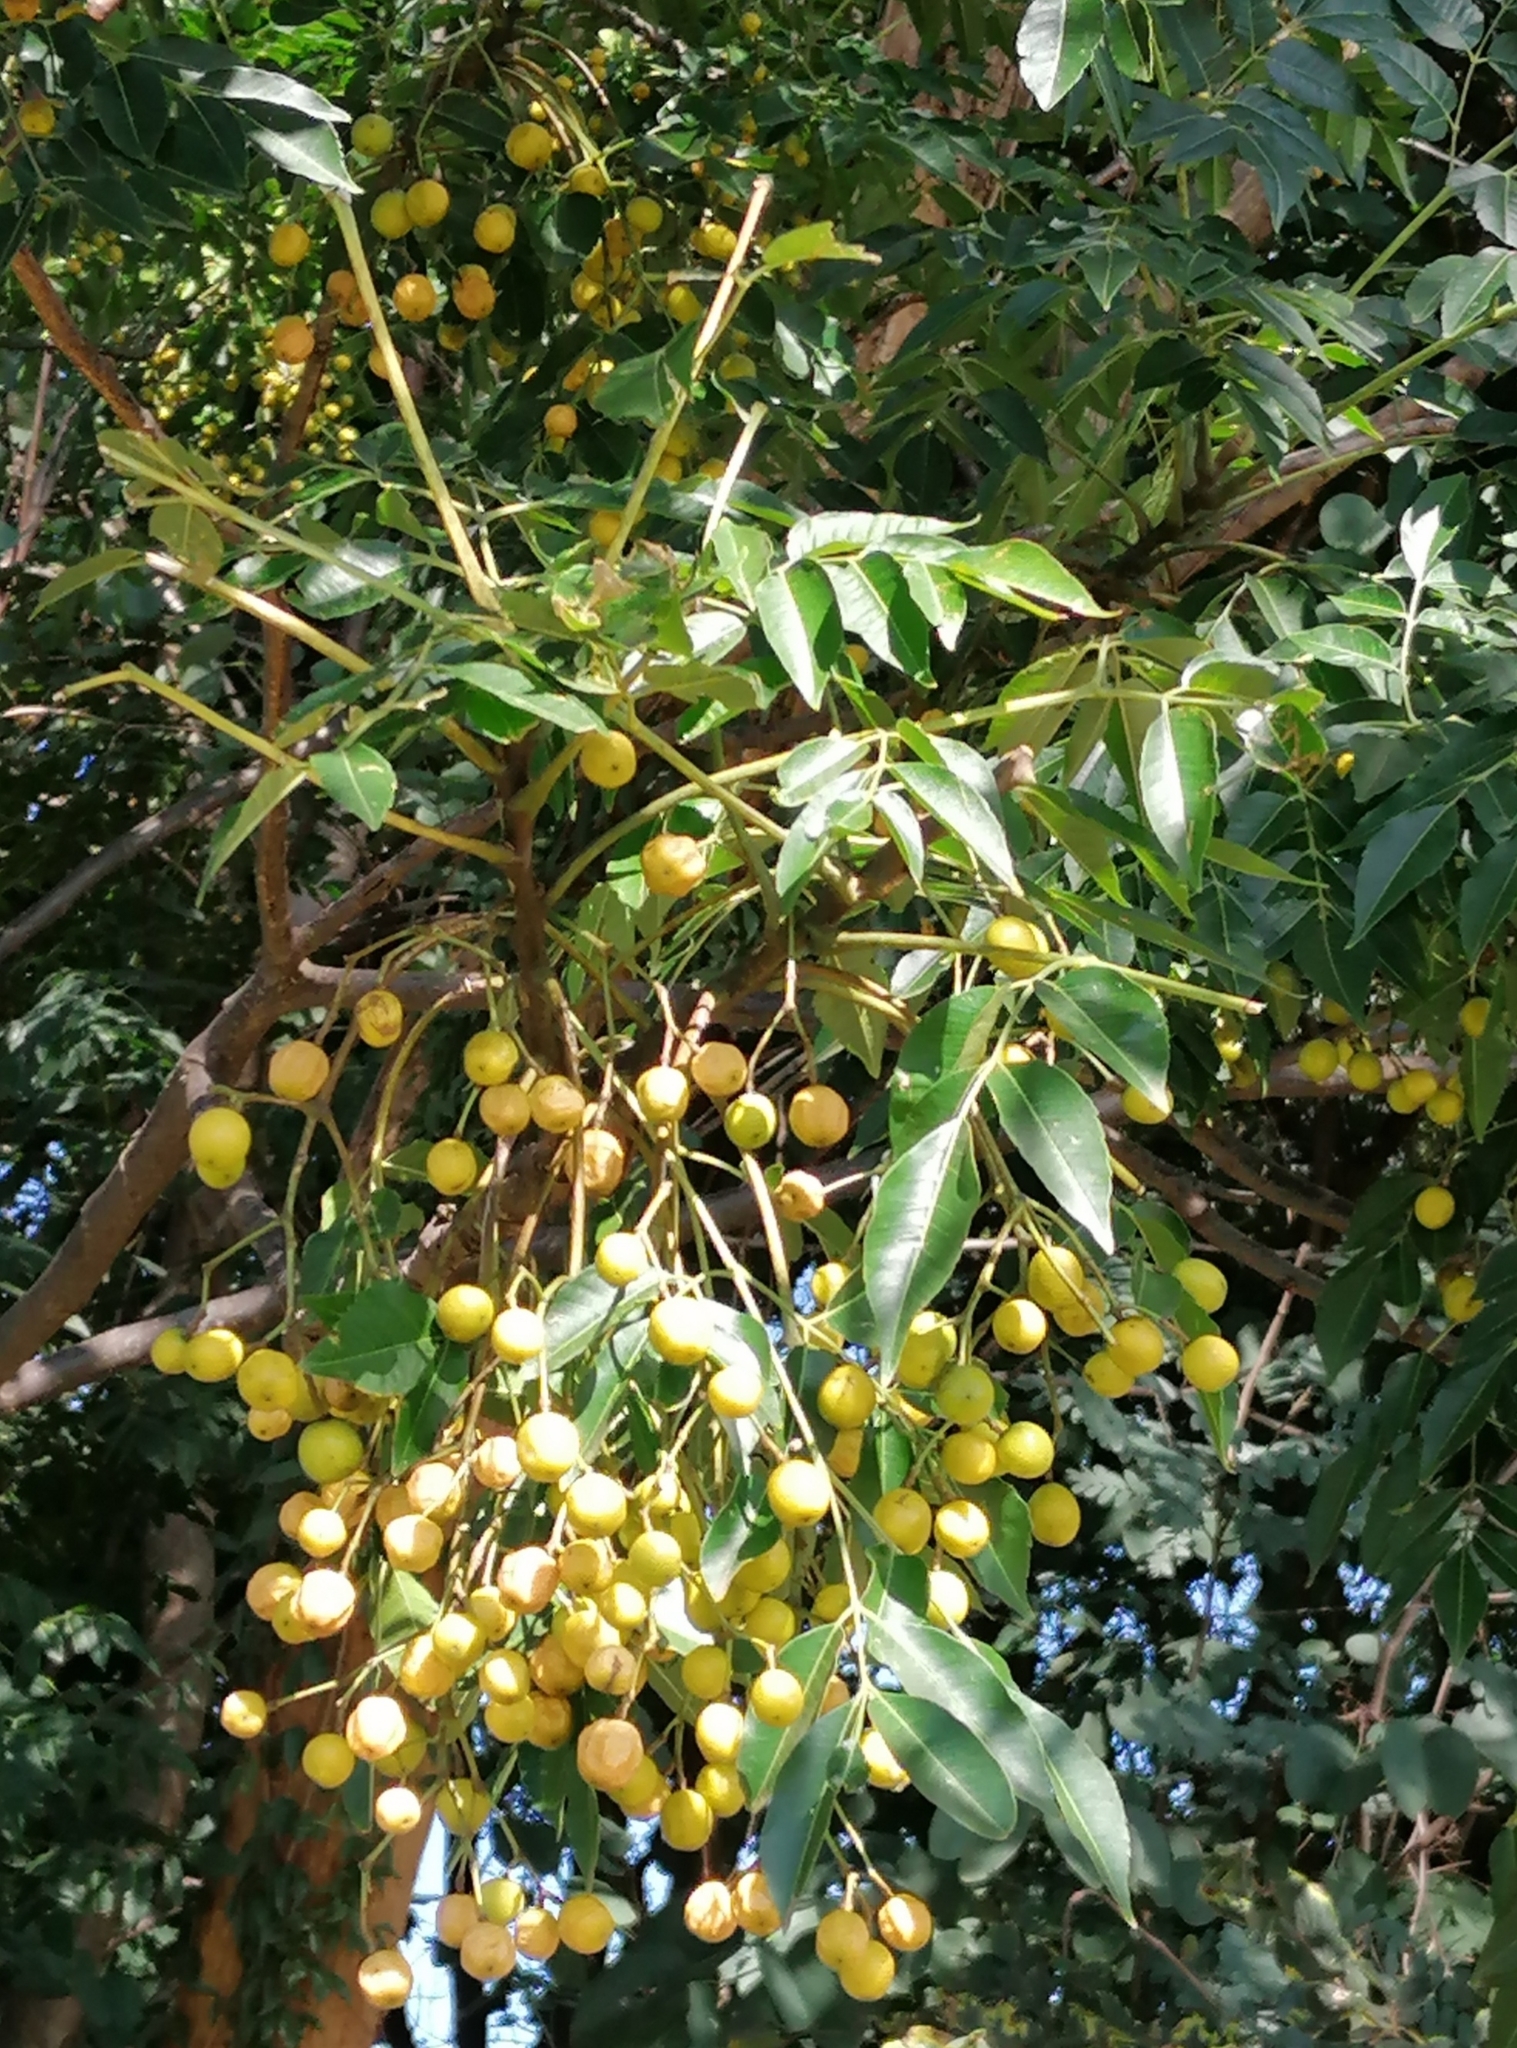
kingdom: Plantae
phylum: Tracheophyta
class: Magnoliopsida
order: Sapindales
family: Meliaceae
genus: Melia
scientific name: Melia azedarach
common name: Chinaberrytree
